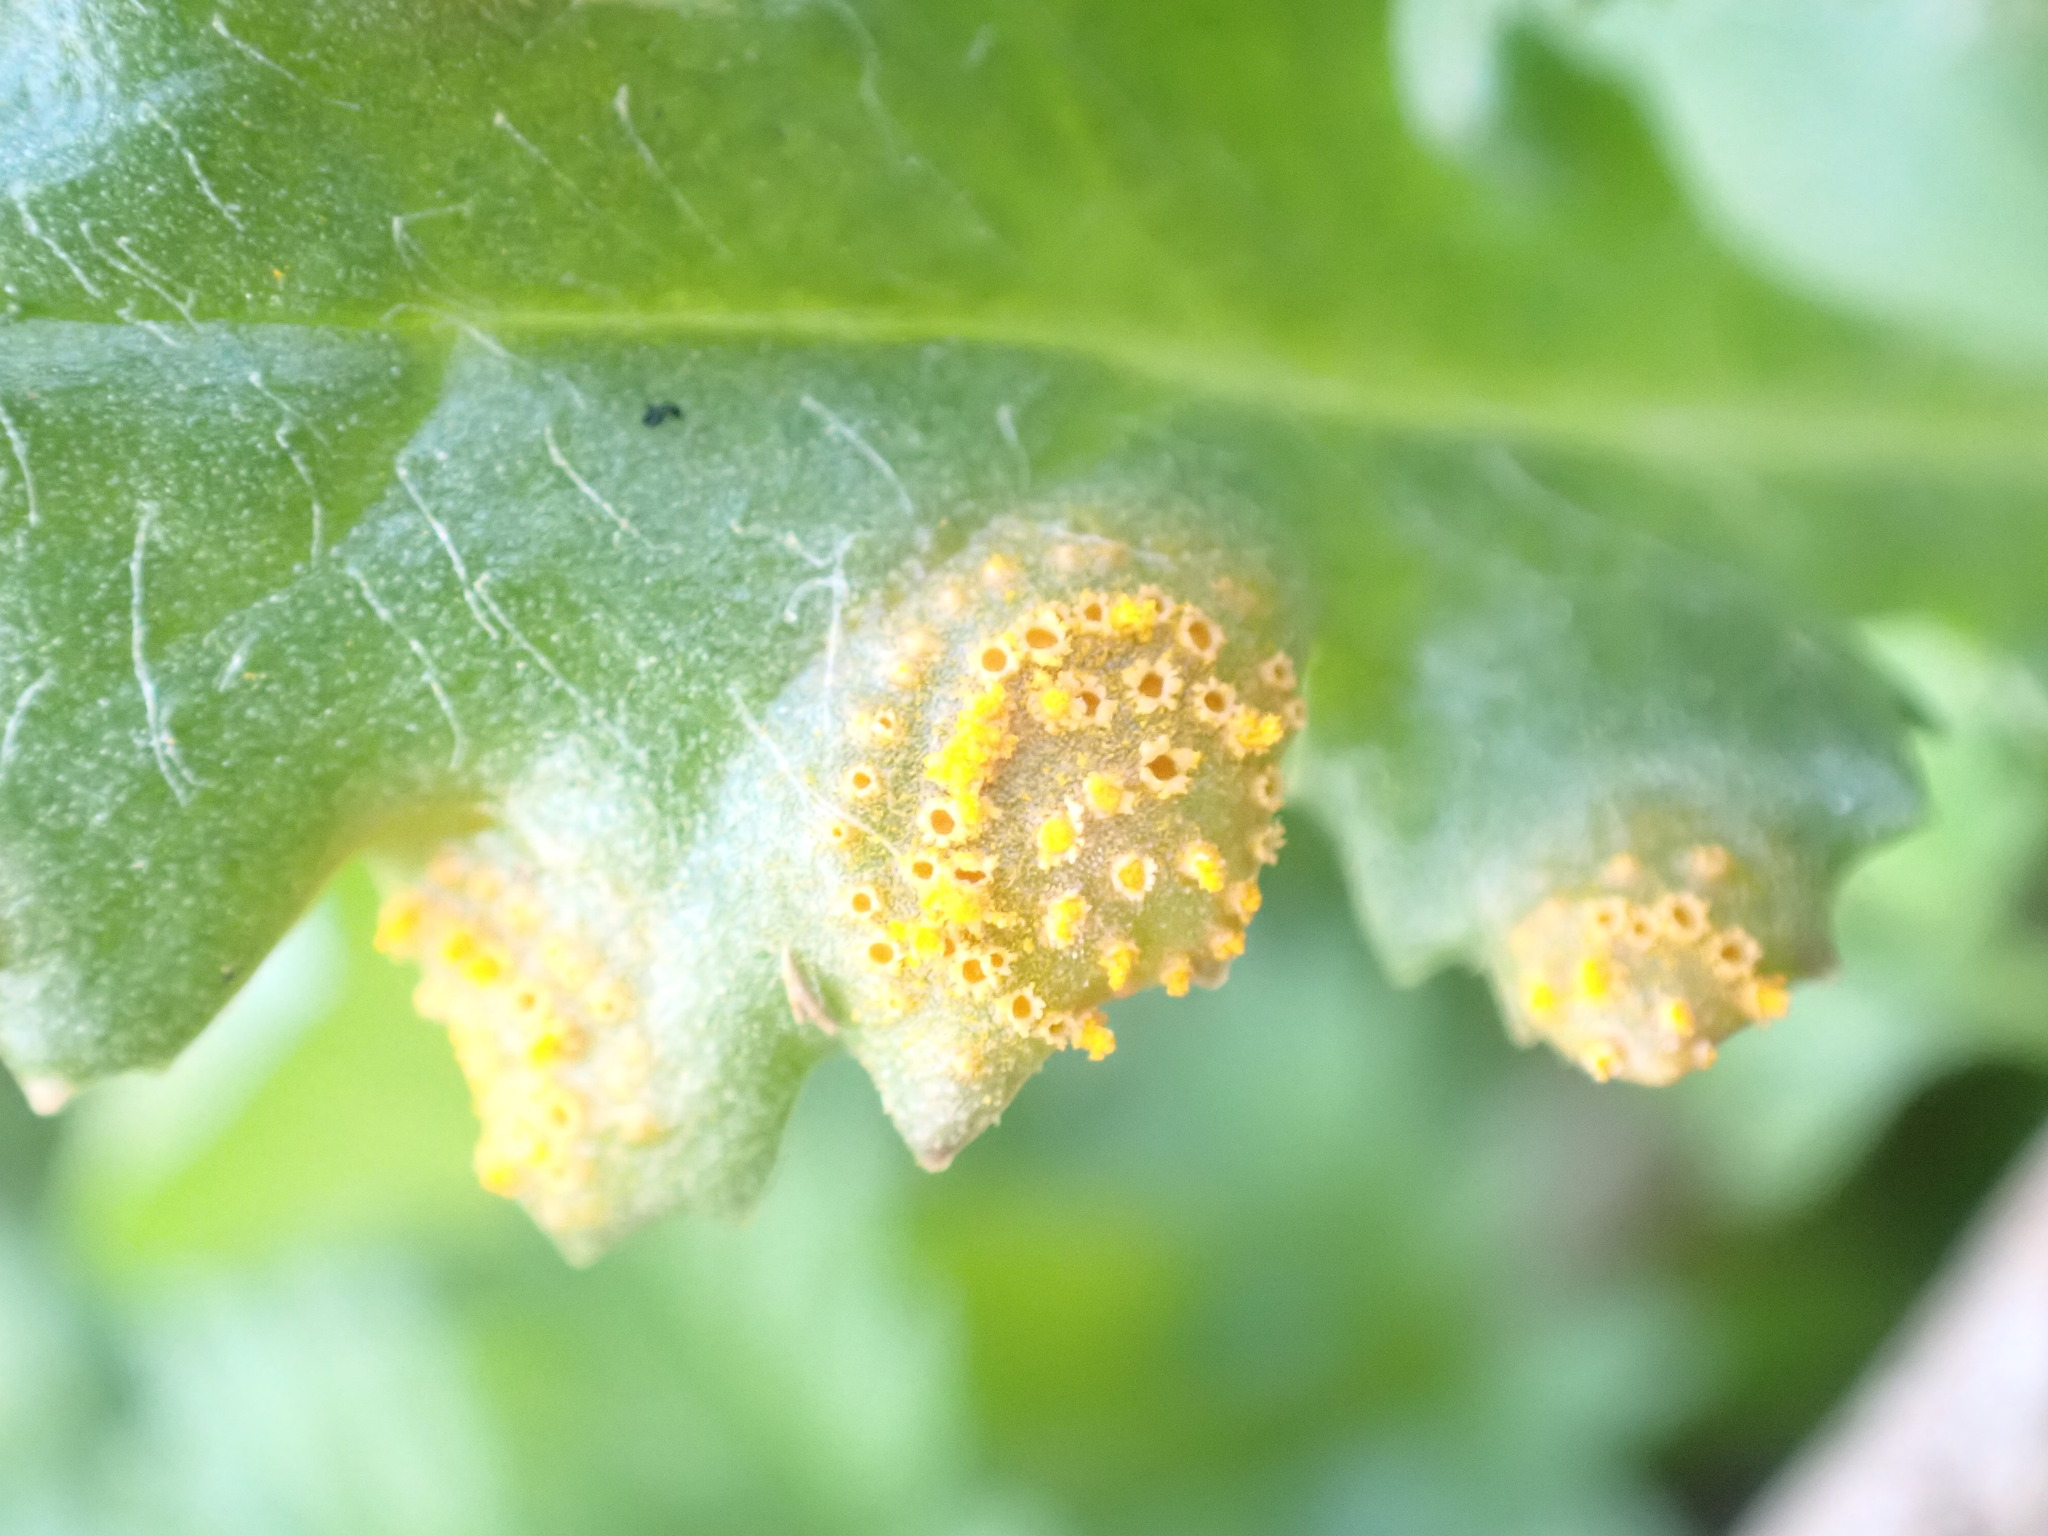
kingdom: Fungi
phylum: Basidiomycota
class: Pucciniomycetes
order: Pucciniales
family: Pucciniaceae
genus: Puccinia
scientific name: Puccinia lagenophorae
